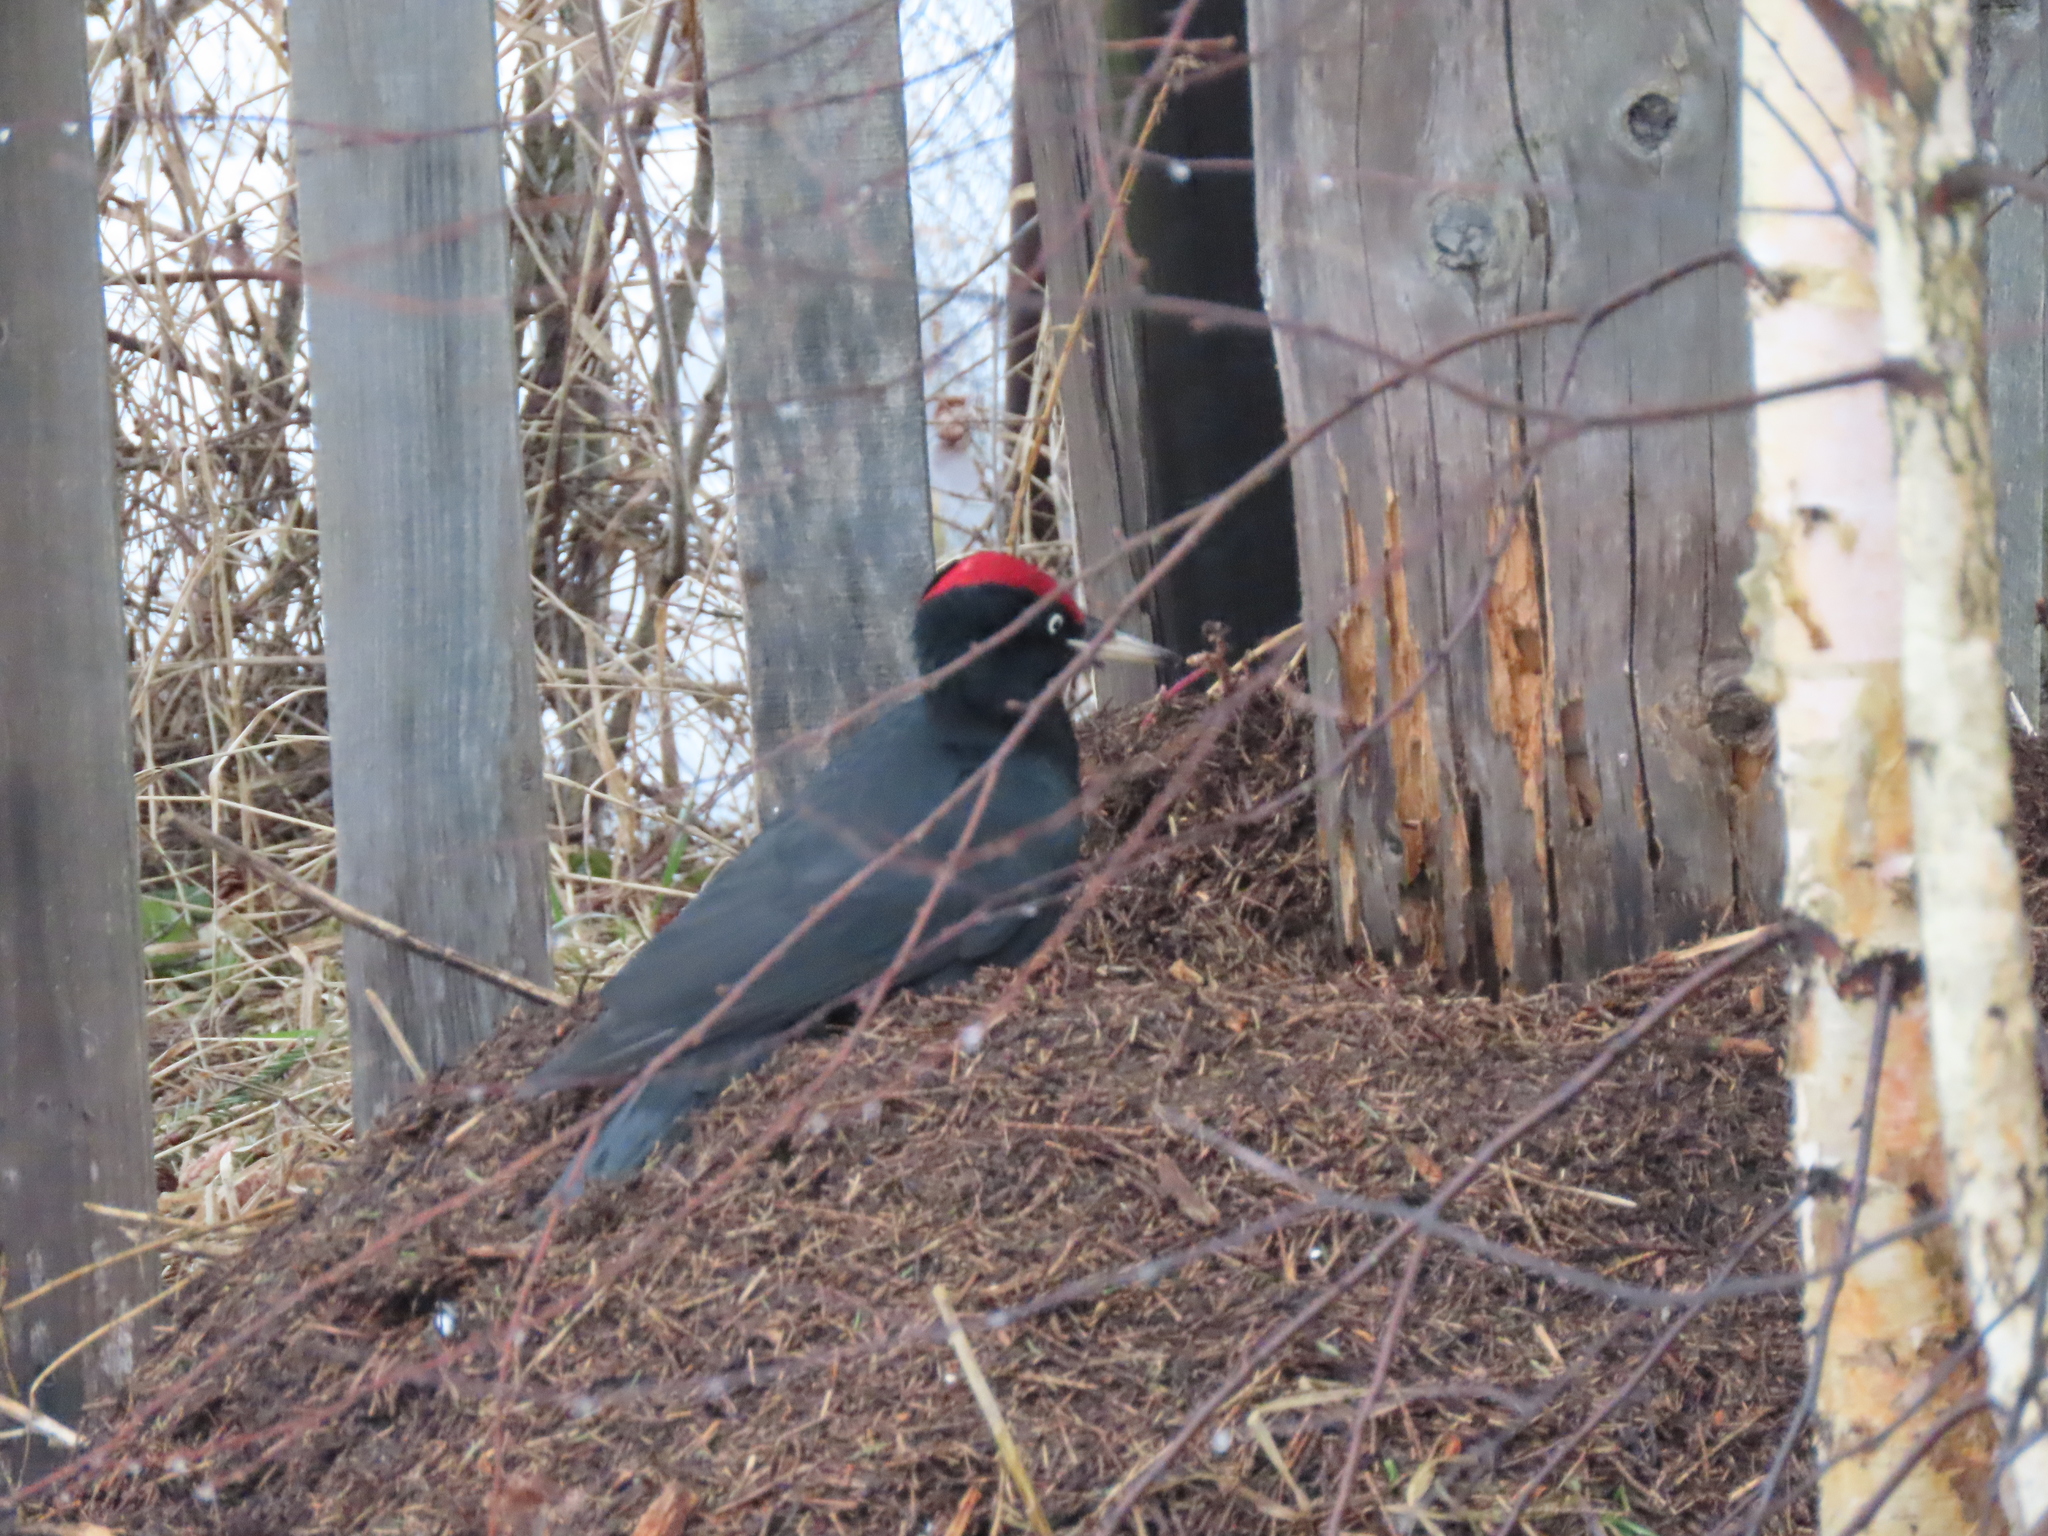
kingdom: Animalia
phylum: Chordata
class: Aves
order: Piciformes
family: Picidae
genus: Dryocopus
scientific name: Dryocopus martius
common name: Black woodpecker
